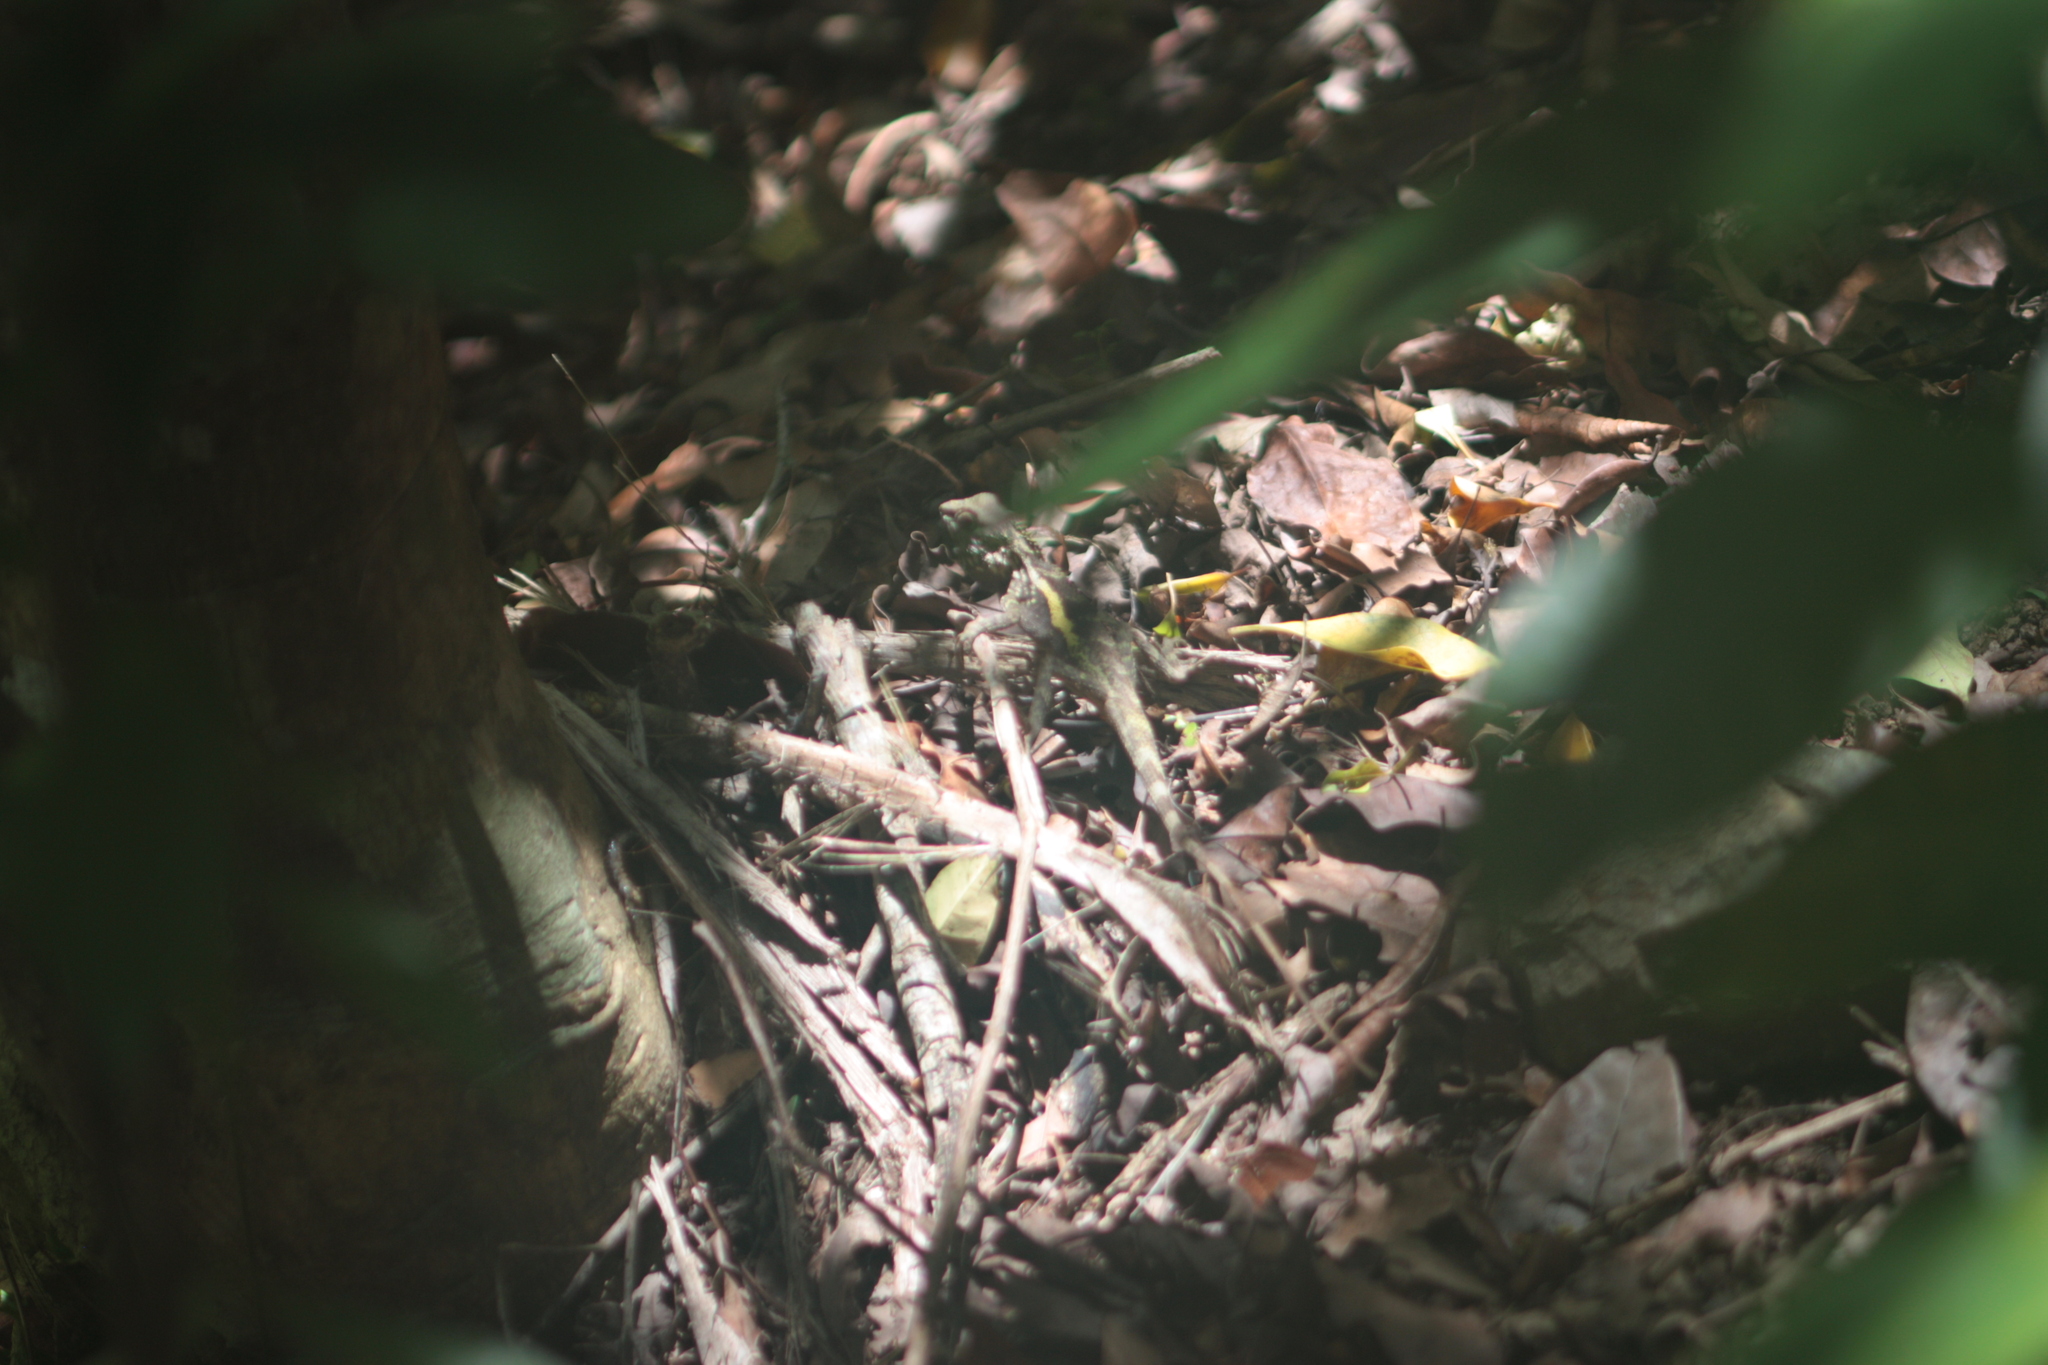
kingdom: Animalia
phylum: Chordata
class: Squamata
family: Agamidae
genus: Diploderma
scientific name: Diploderma swinhonis
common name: Taiwan japalure
